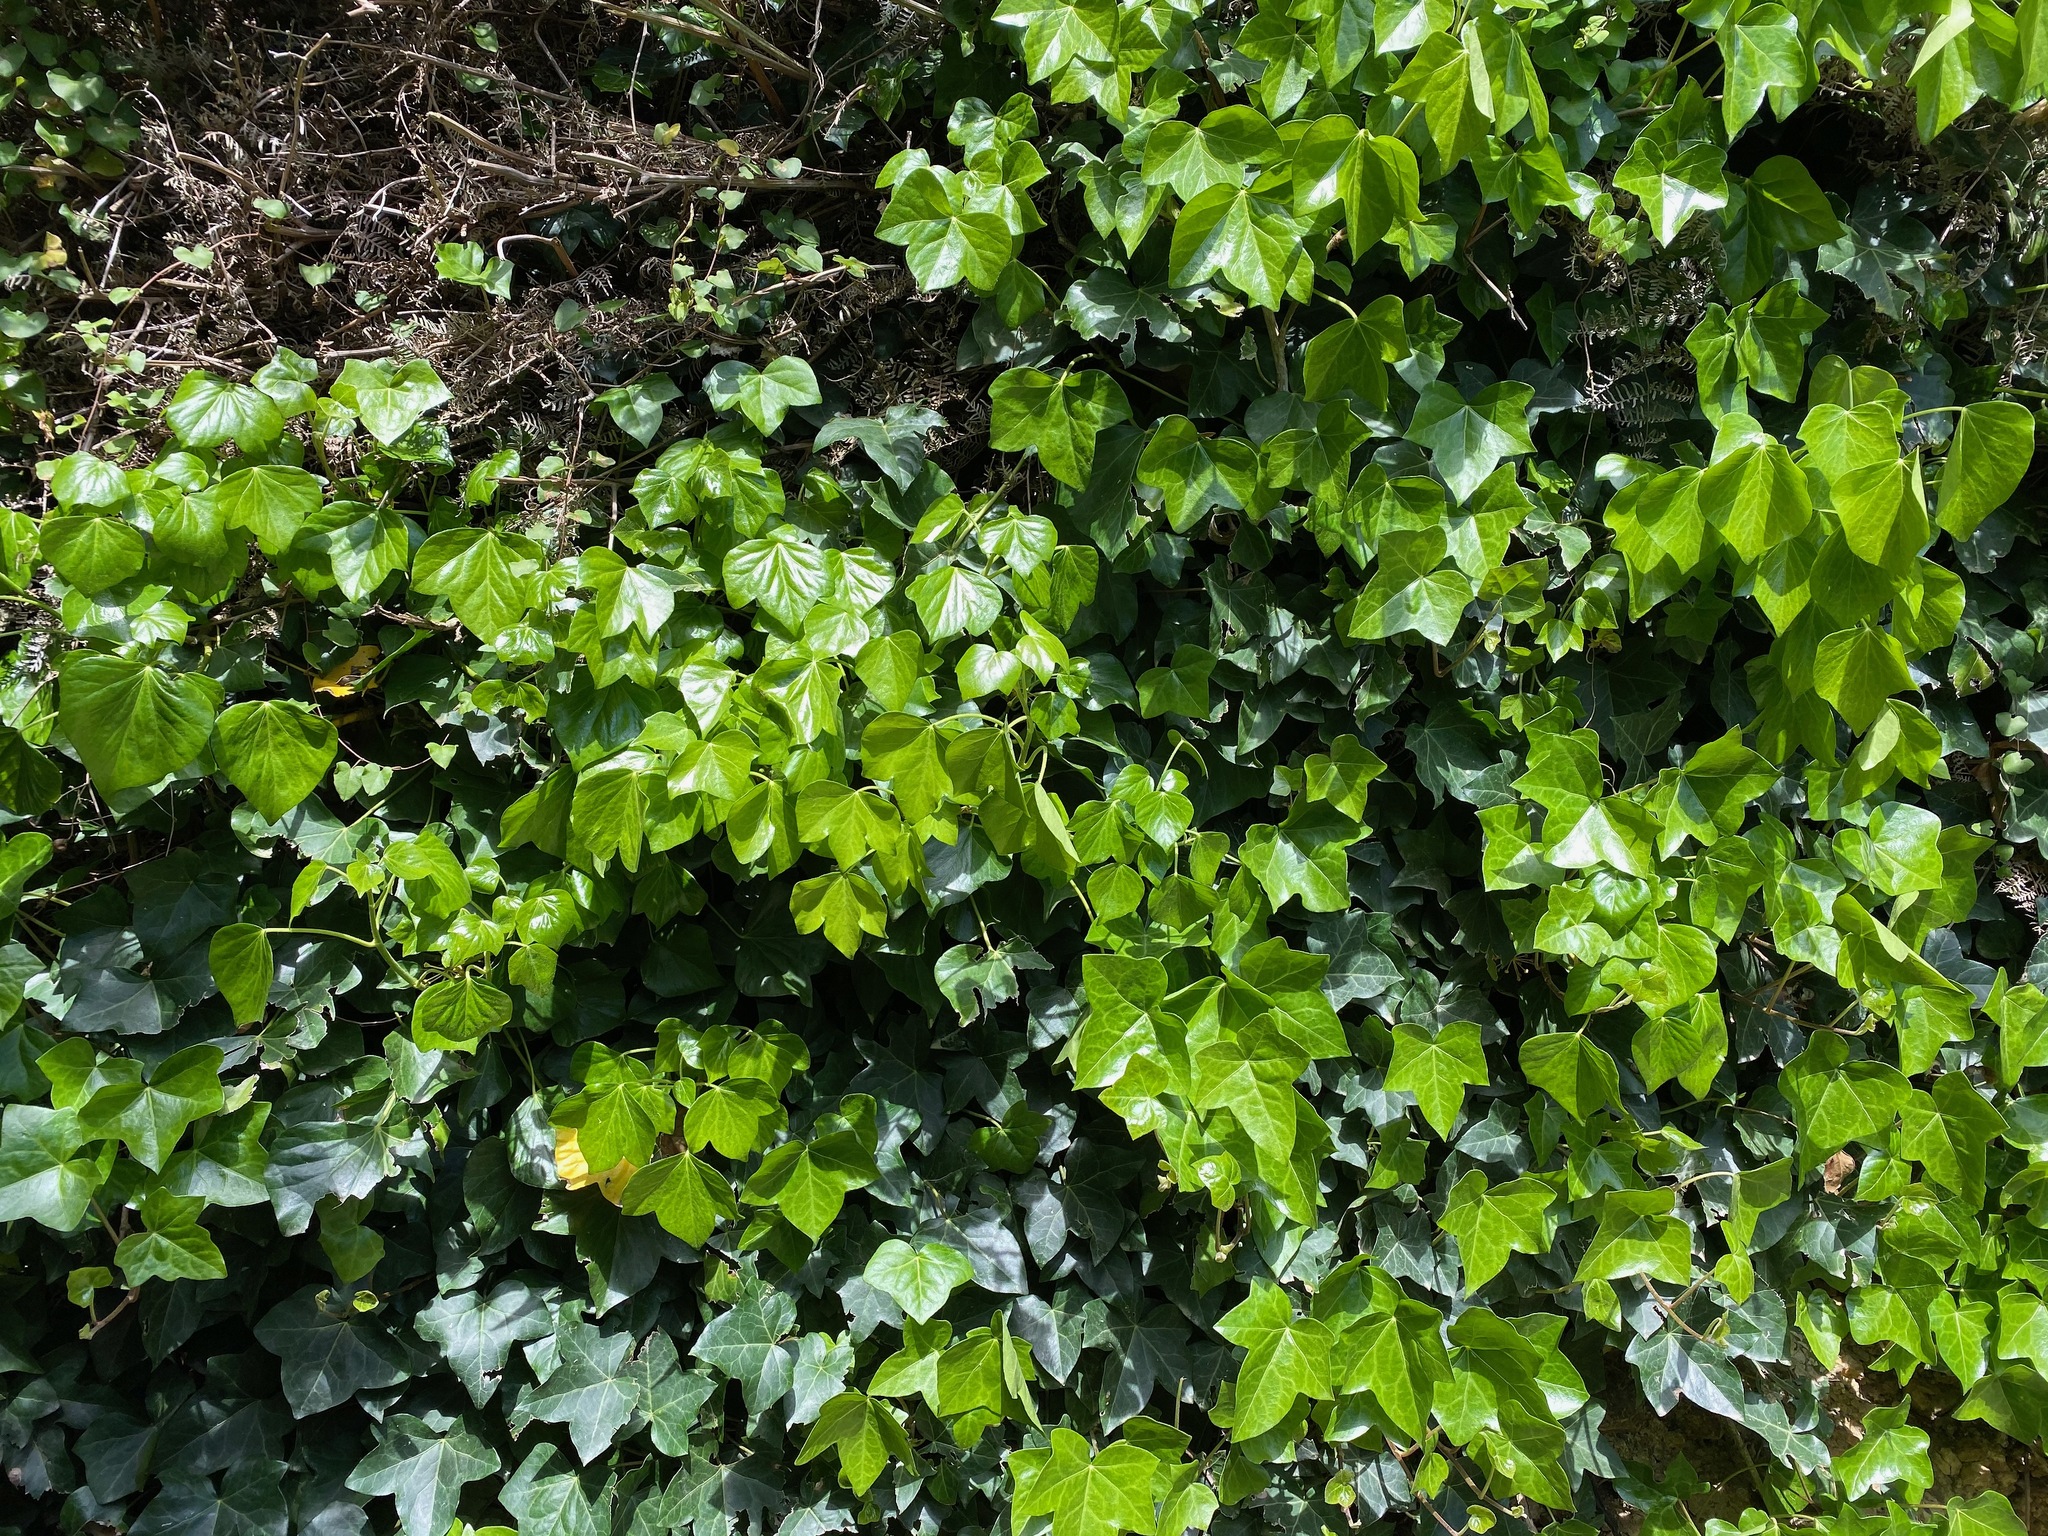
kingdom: Plantae
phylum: Tracheophyta
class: Magnoliopsida
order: Apiales
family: Araliaceae
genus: Hedera
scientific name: Hedera helix
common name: Ivy
